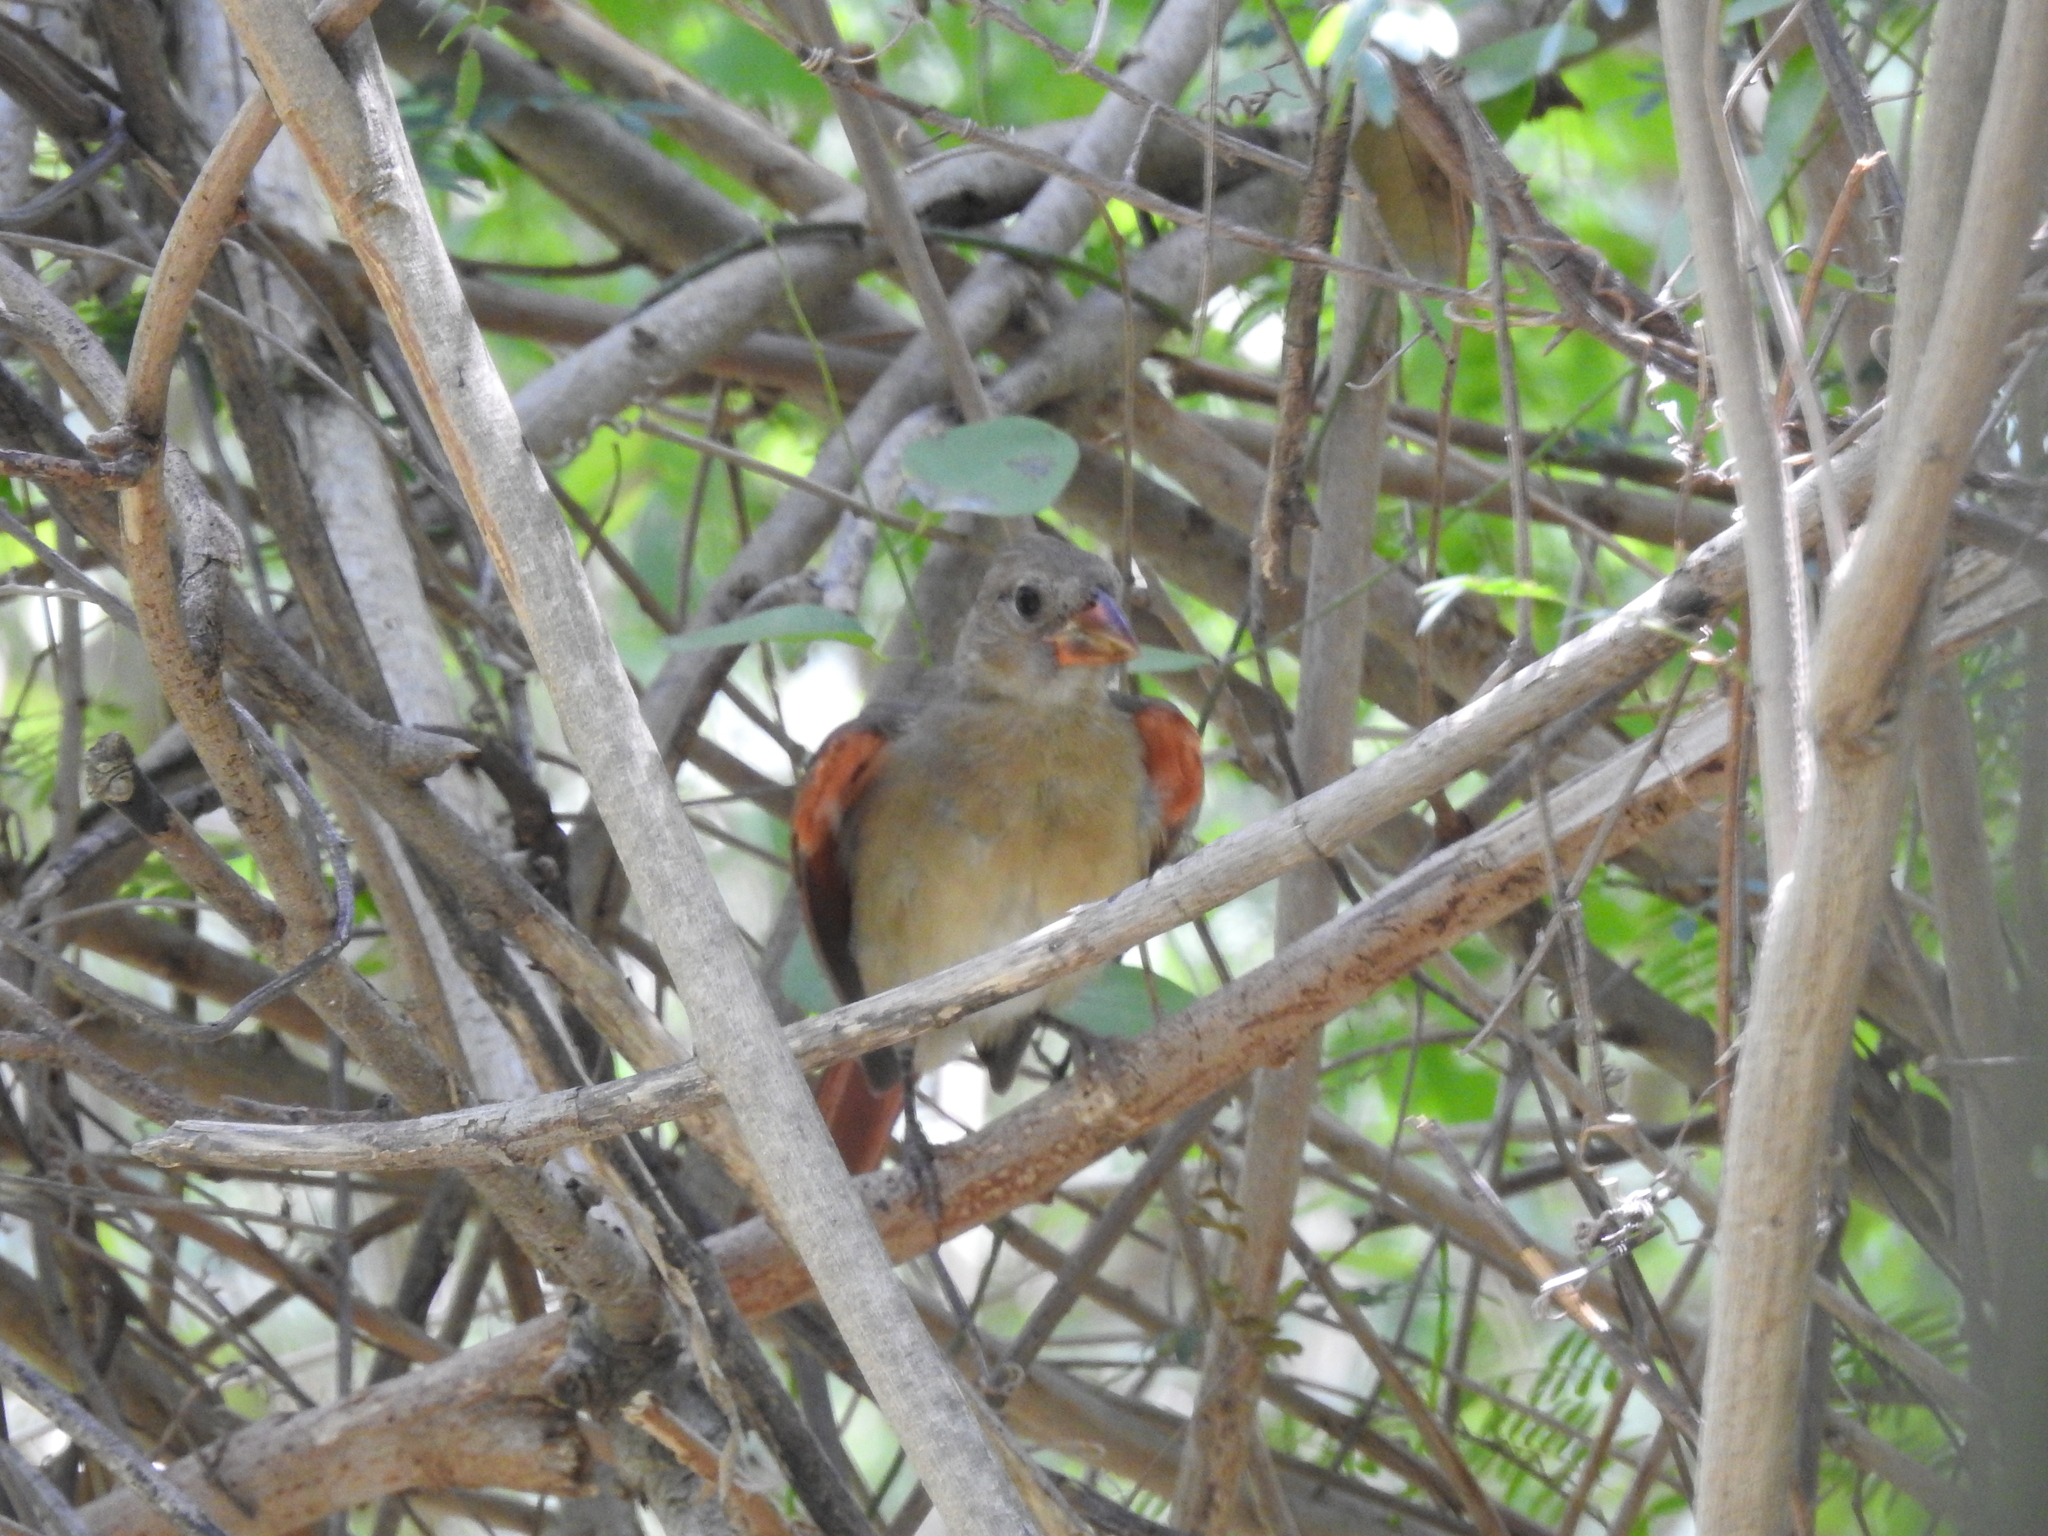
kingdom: Animalia
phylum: Chordata
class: Aves
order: Passeriformes
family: Cardinalidae
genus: Cardinalis
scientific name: Cardinalis cardinalis
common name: Northern cardinal
